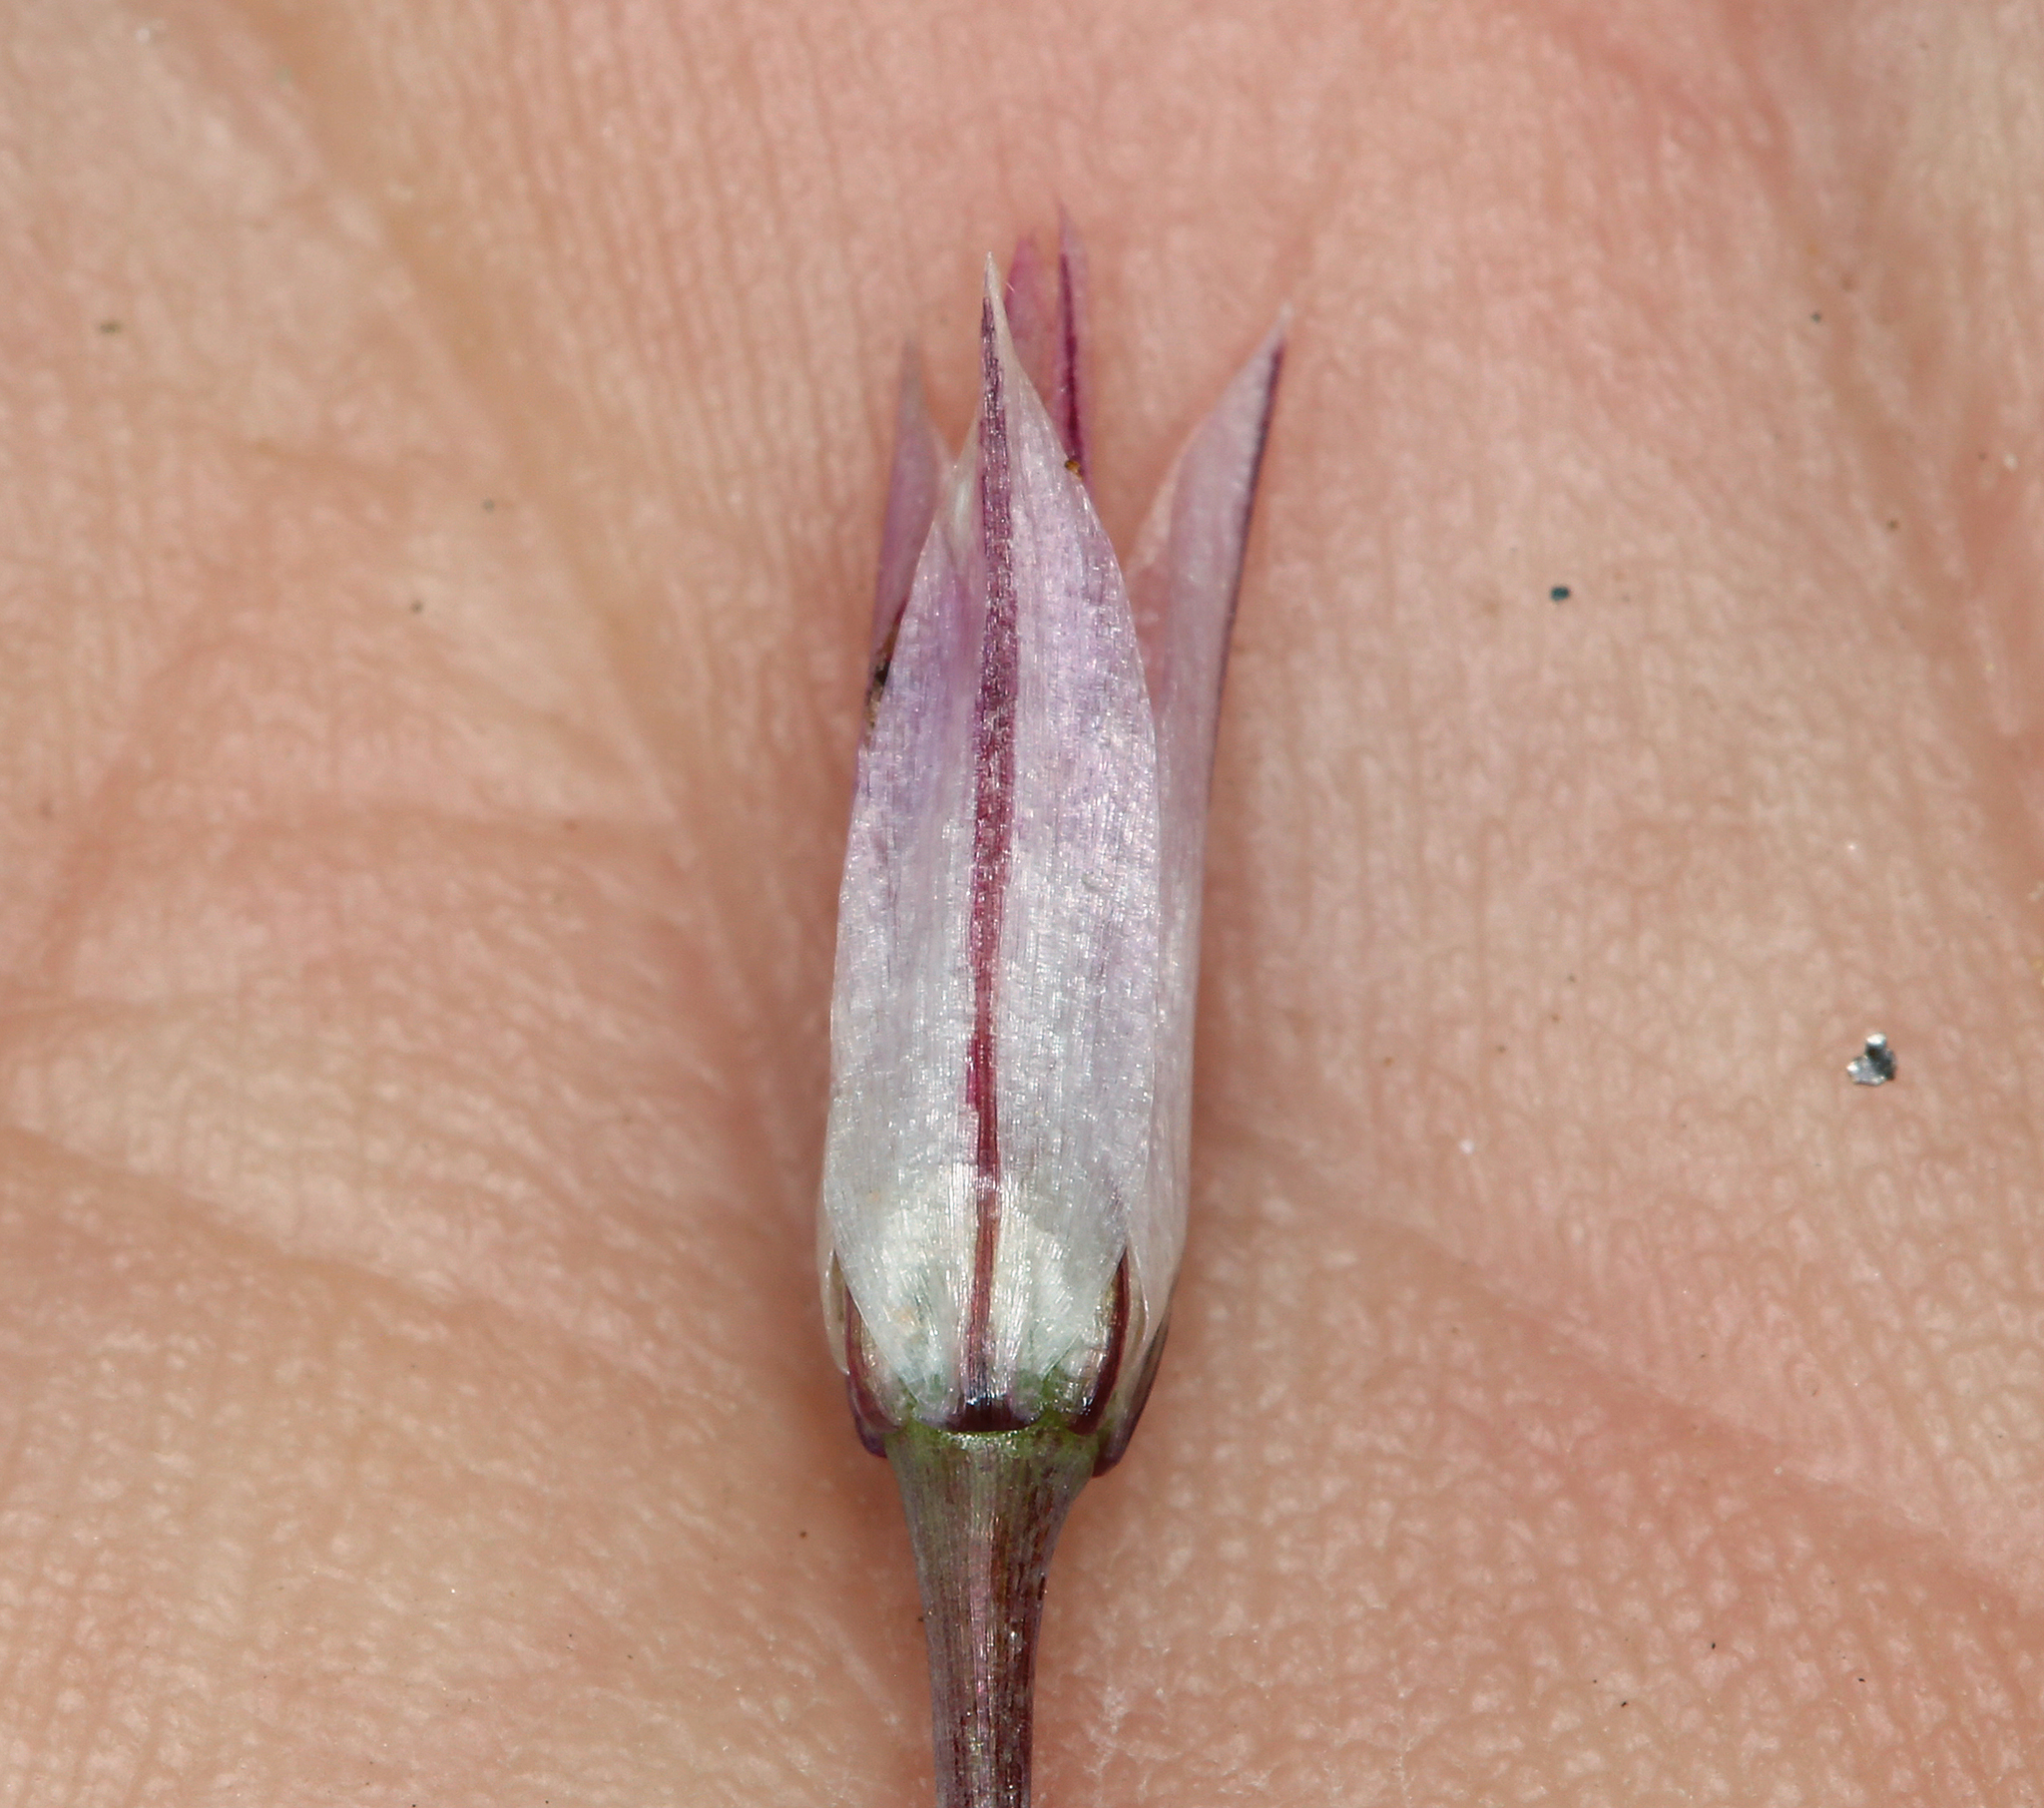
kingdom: Plantae
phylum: Tracheophyta
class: Liliopsida
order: Asparagales
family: Amaryllidaceae
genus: Allium
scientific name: Allium atrorubens
